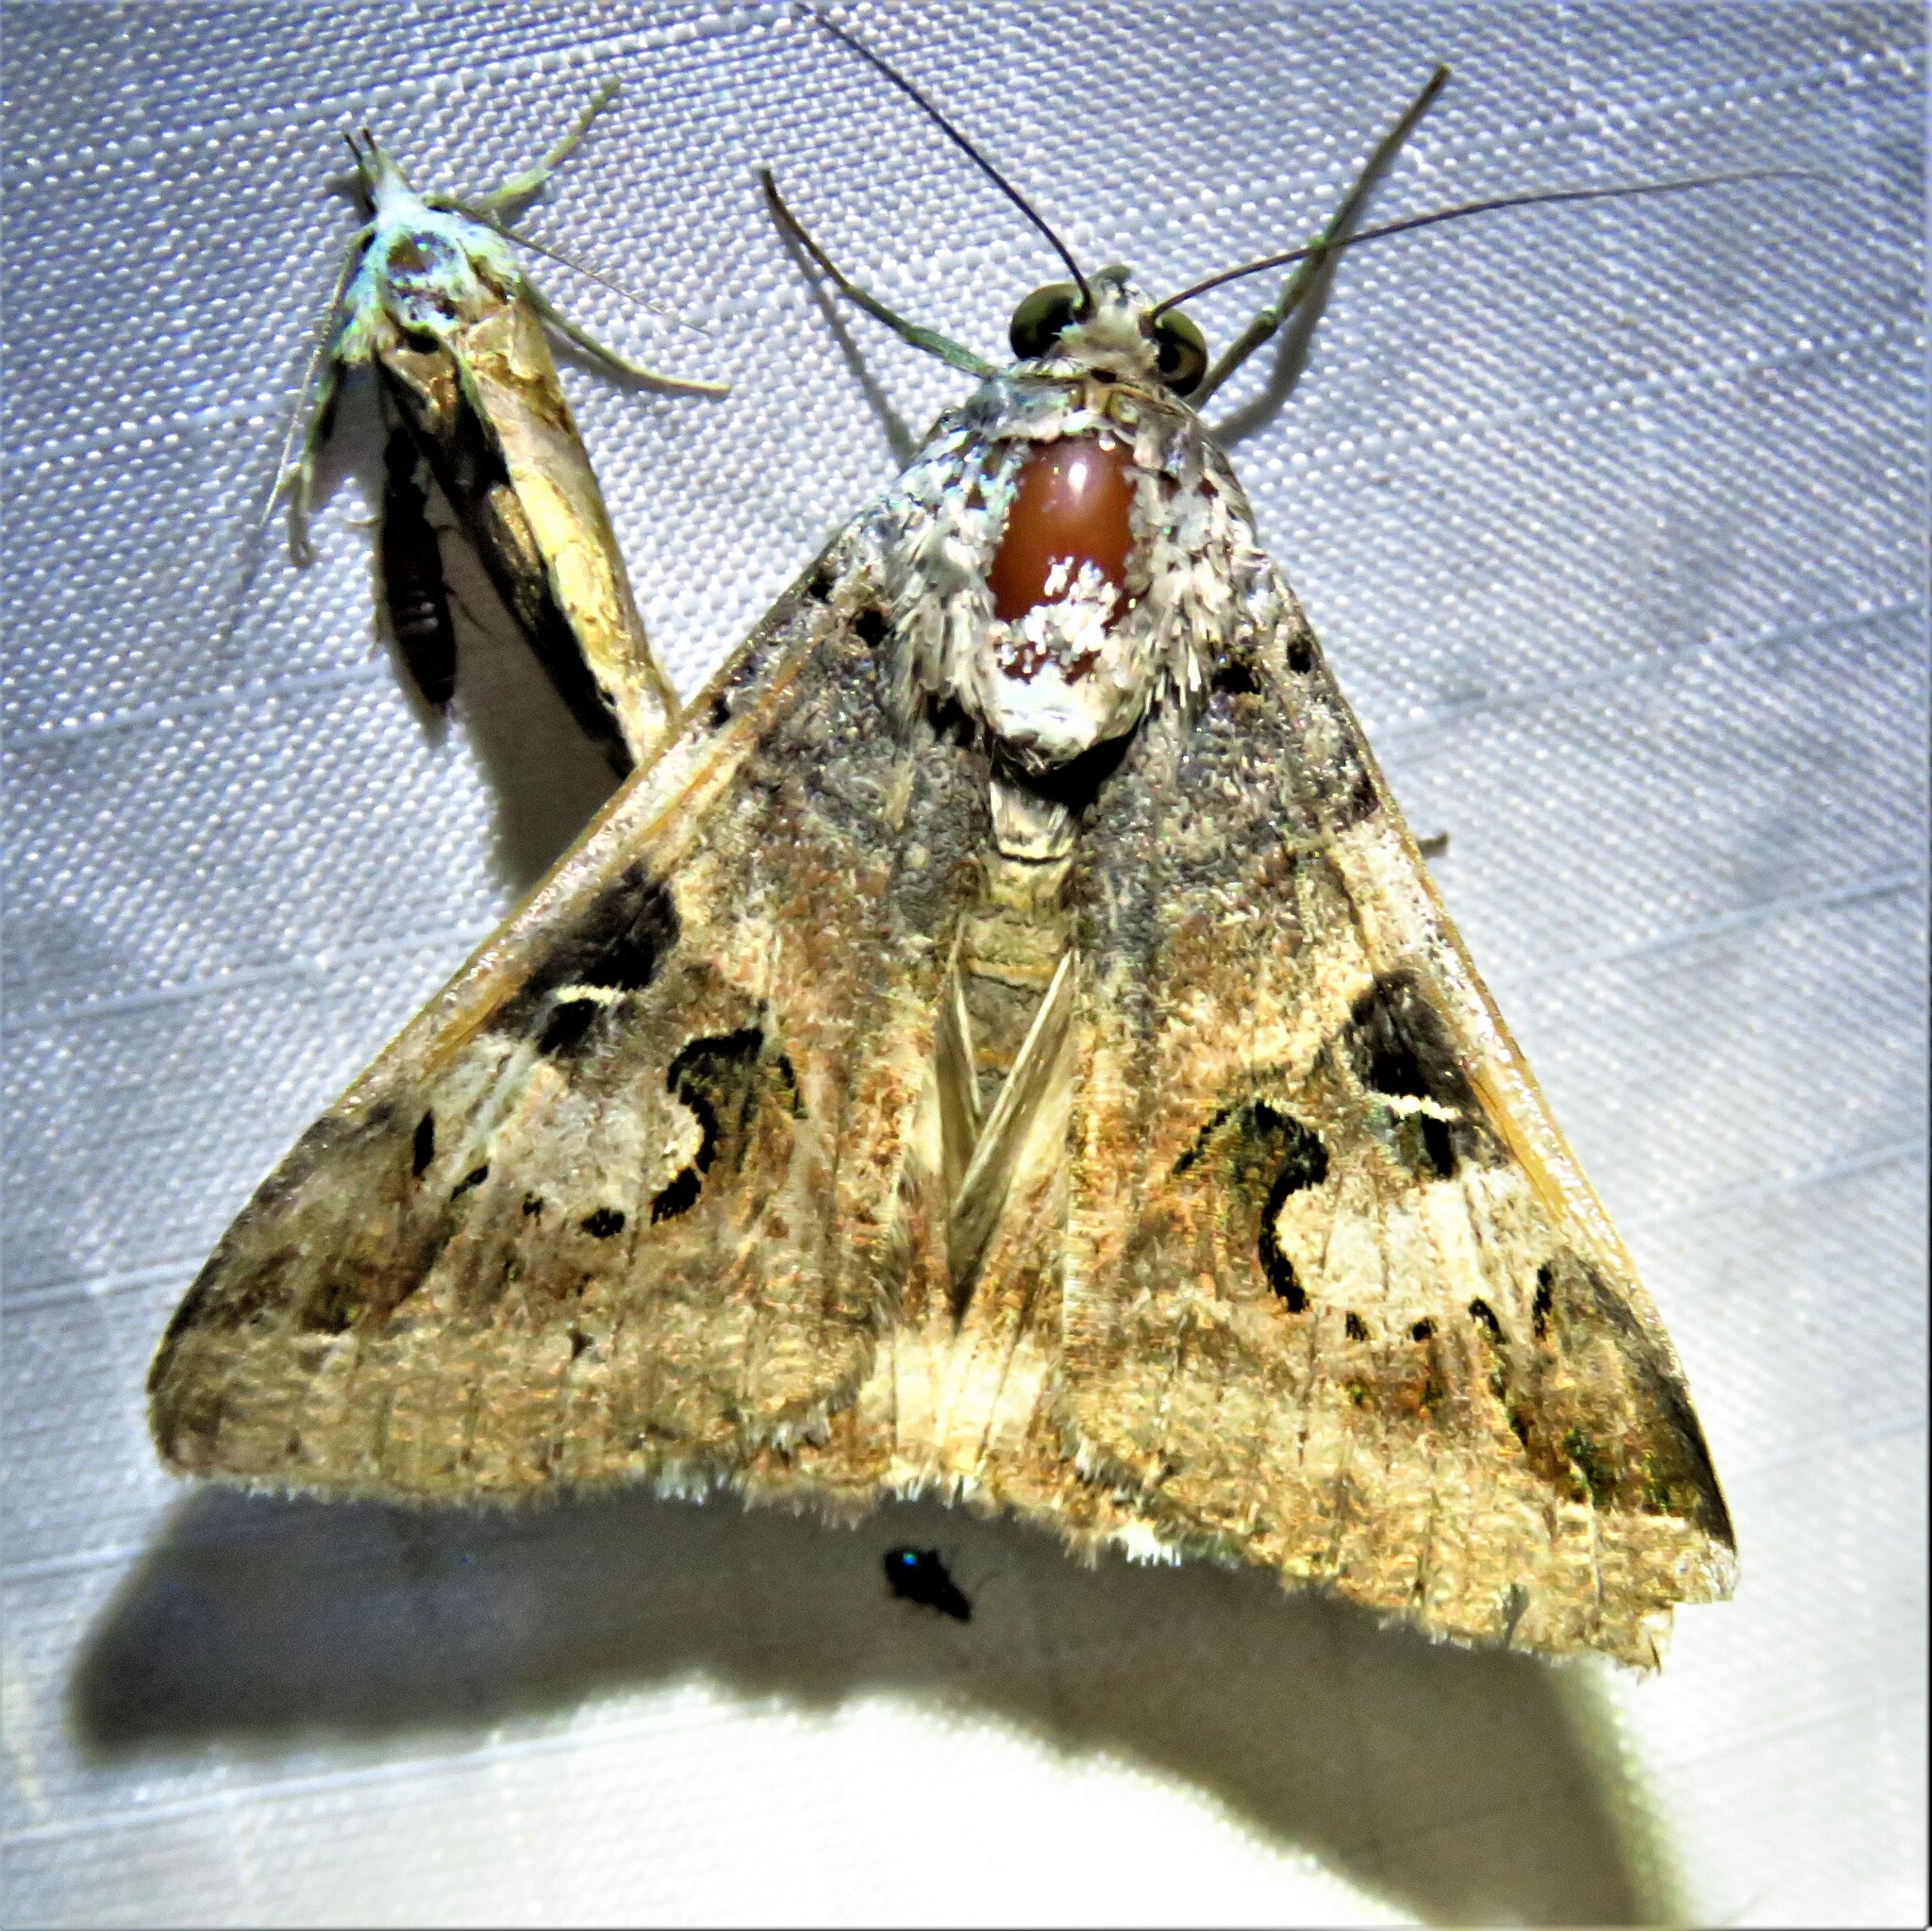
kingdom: Animalia
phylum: Arthropoda
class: Insecta
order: Lepidoptera
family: Erebidae
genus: Melipotis
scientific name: Melipotis indomita
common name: Moth
